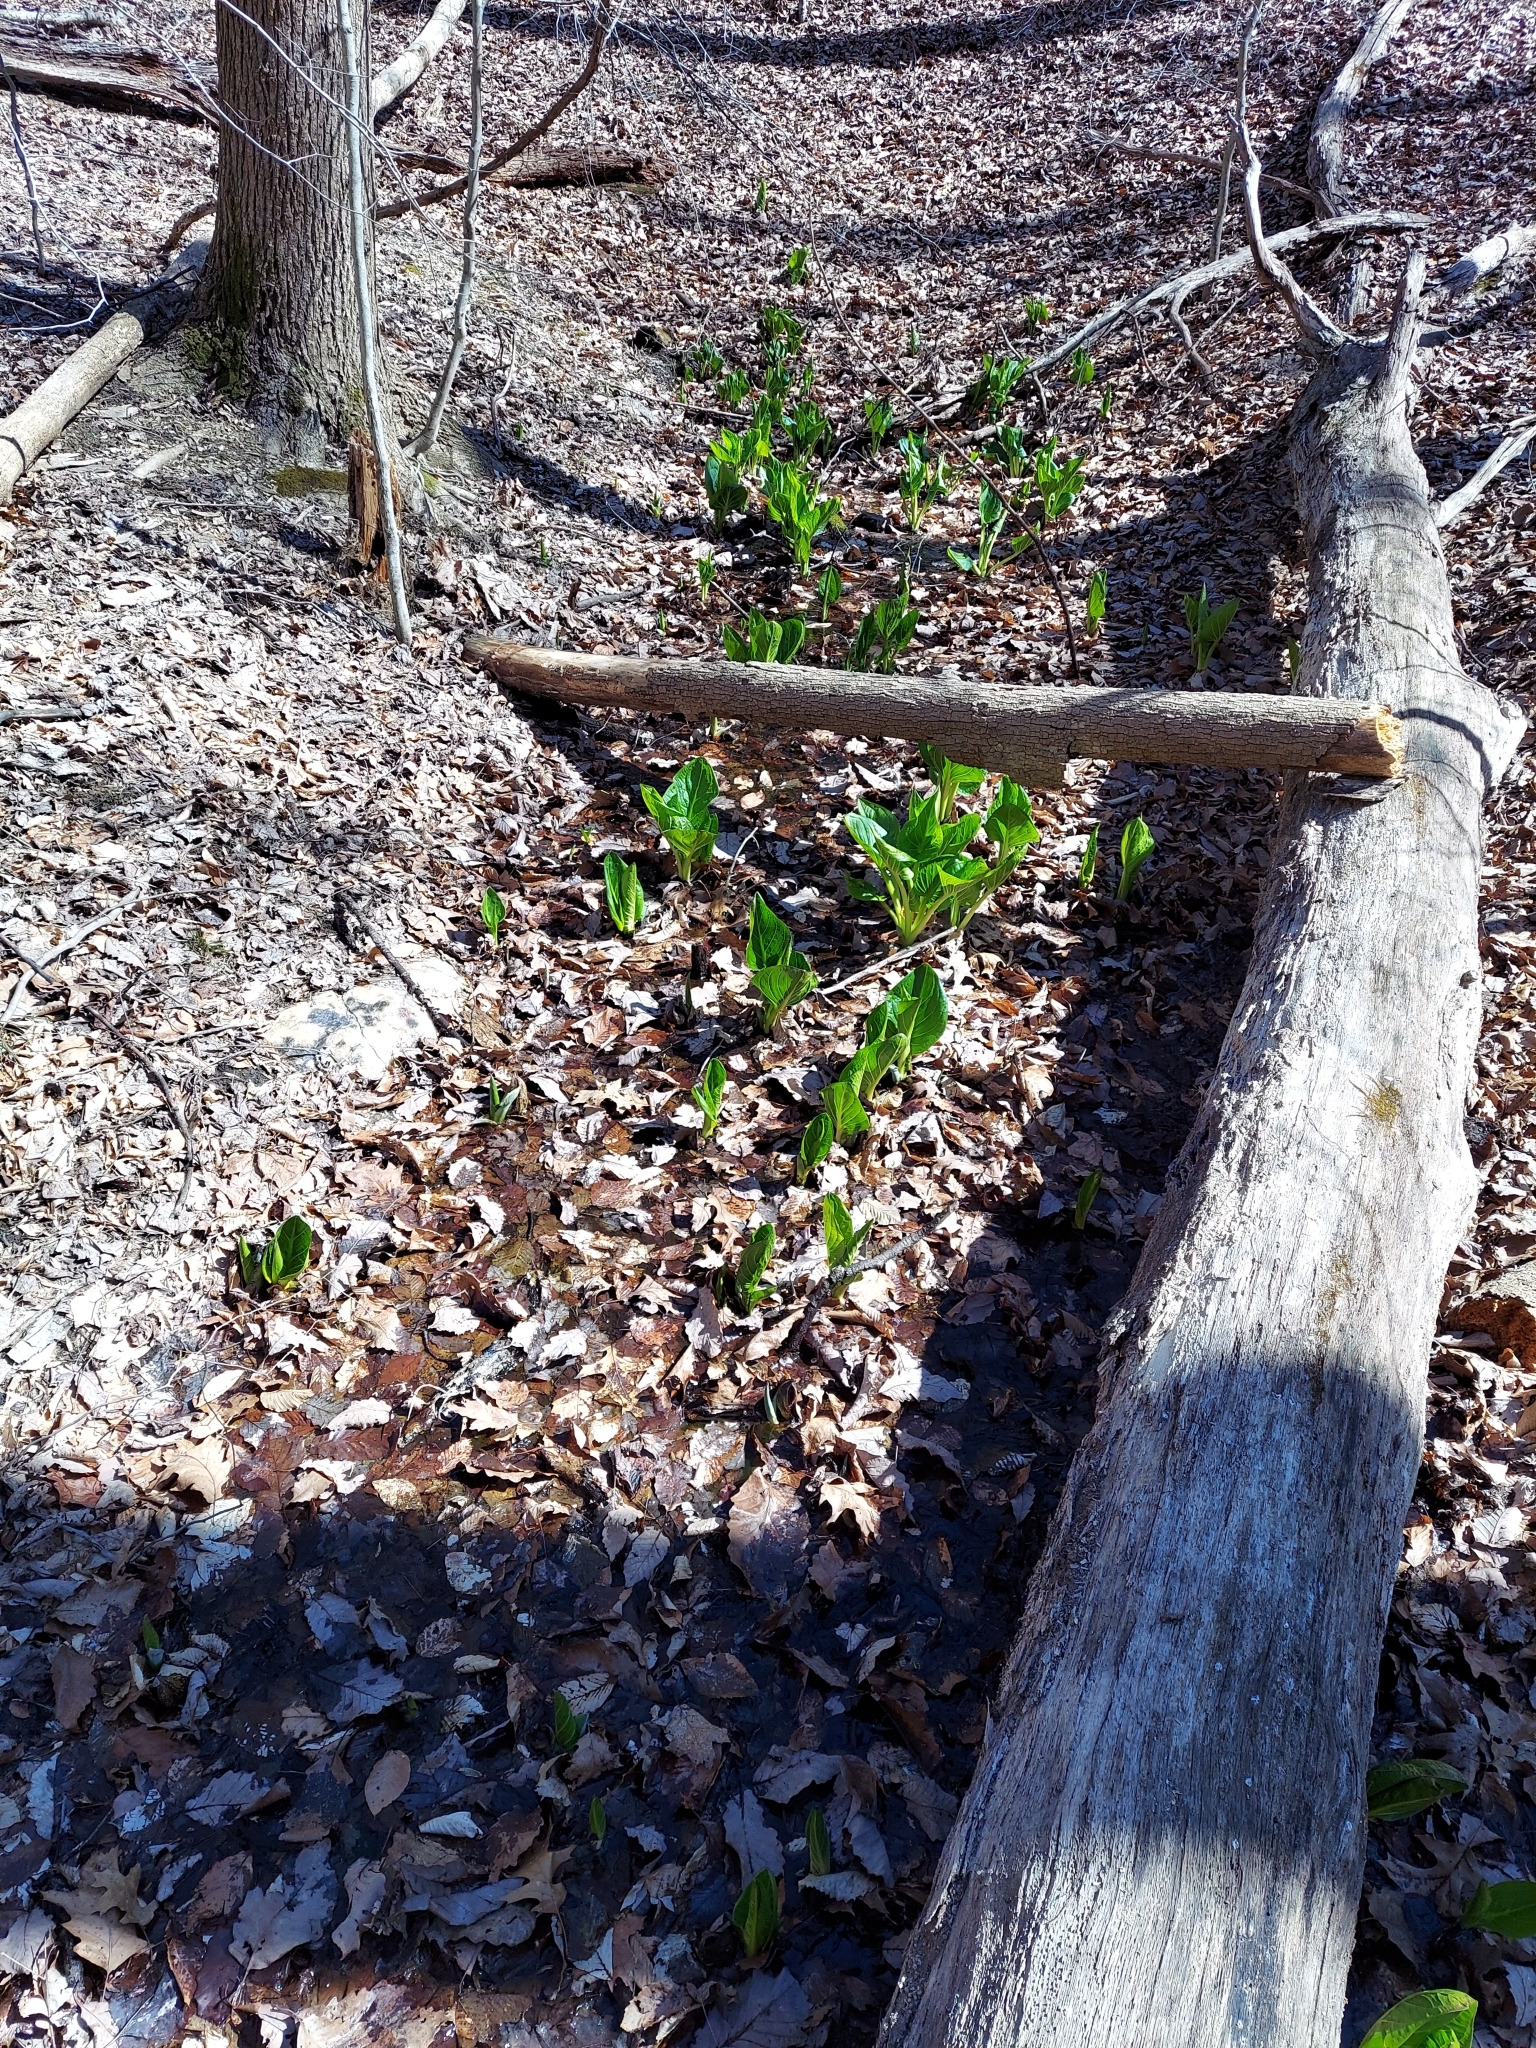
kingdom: Plantae
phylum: Tracheophyta
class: Liliopsida
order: Alismatales
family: Araceae
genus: Symplocarpus
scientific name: Symplocarpus foetidus
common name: Eastern skunk cabbage
